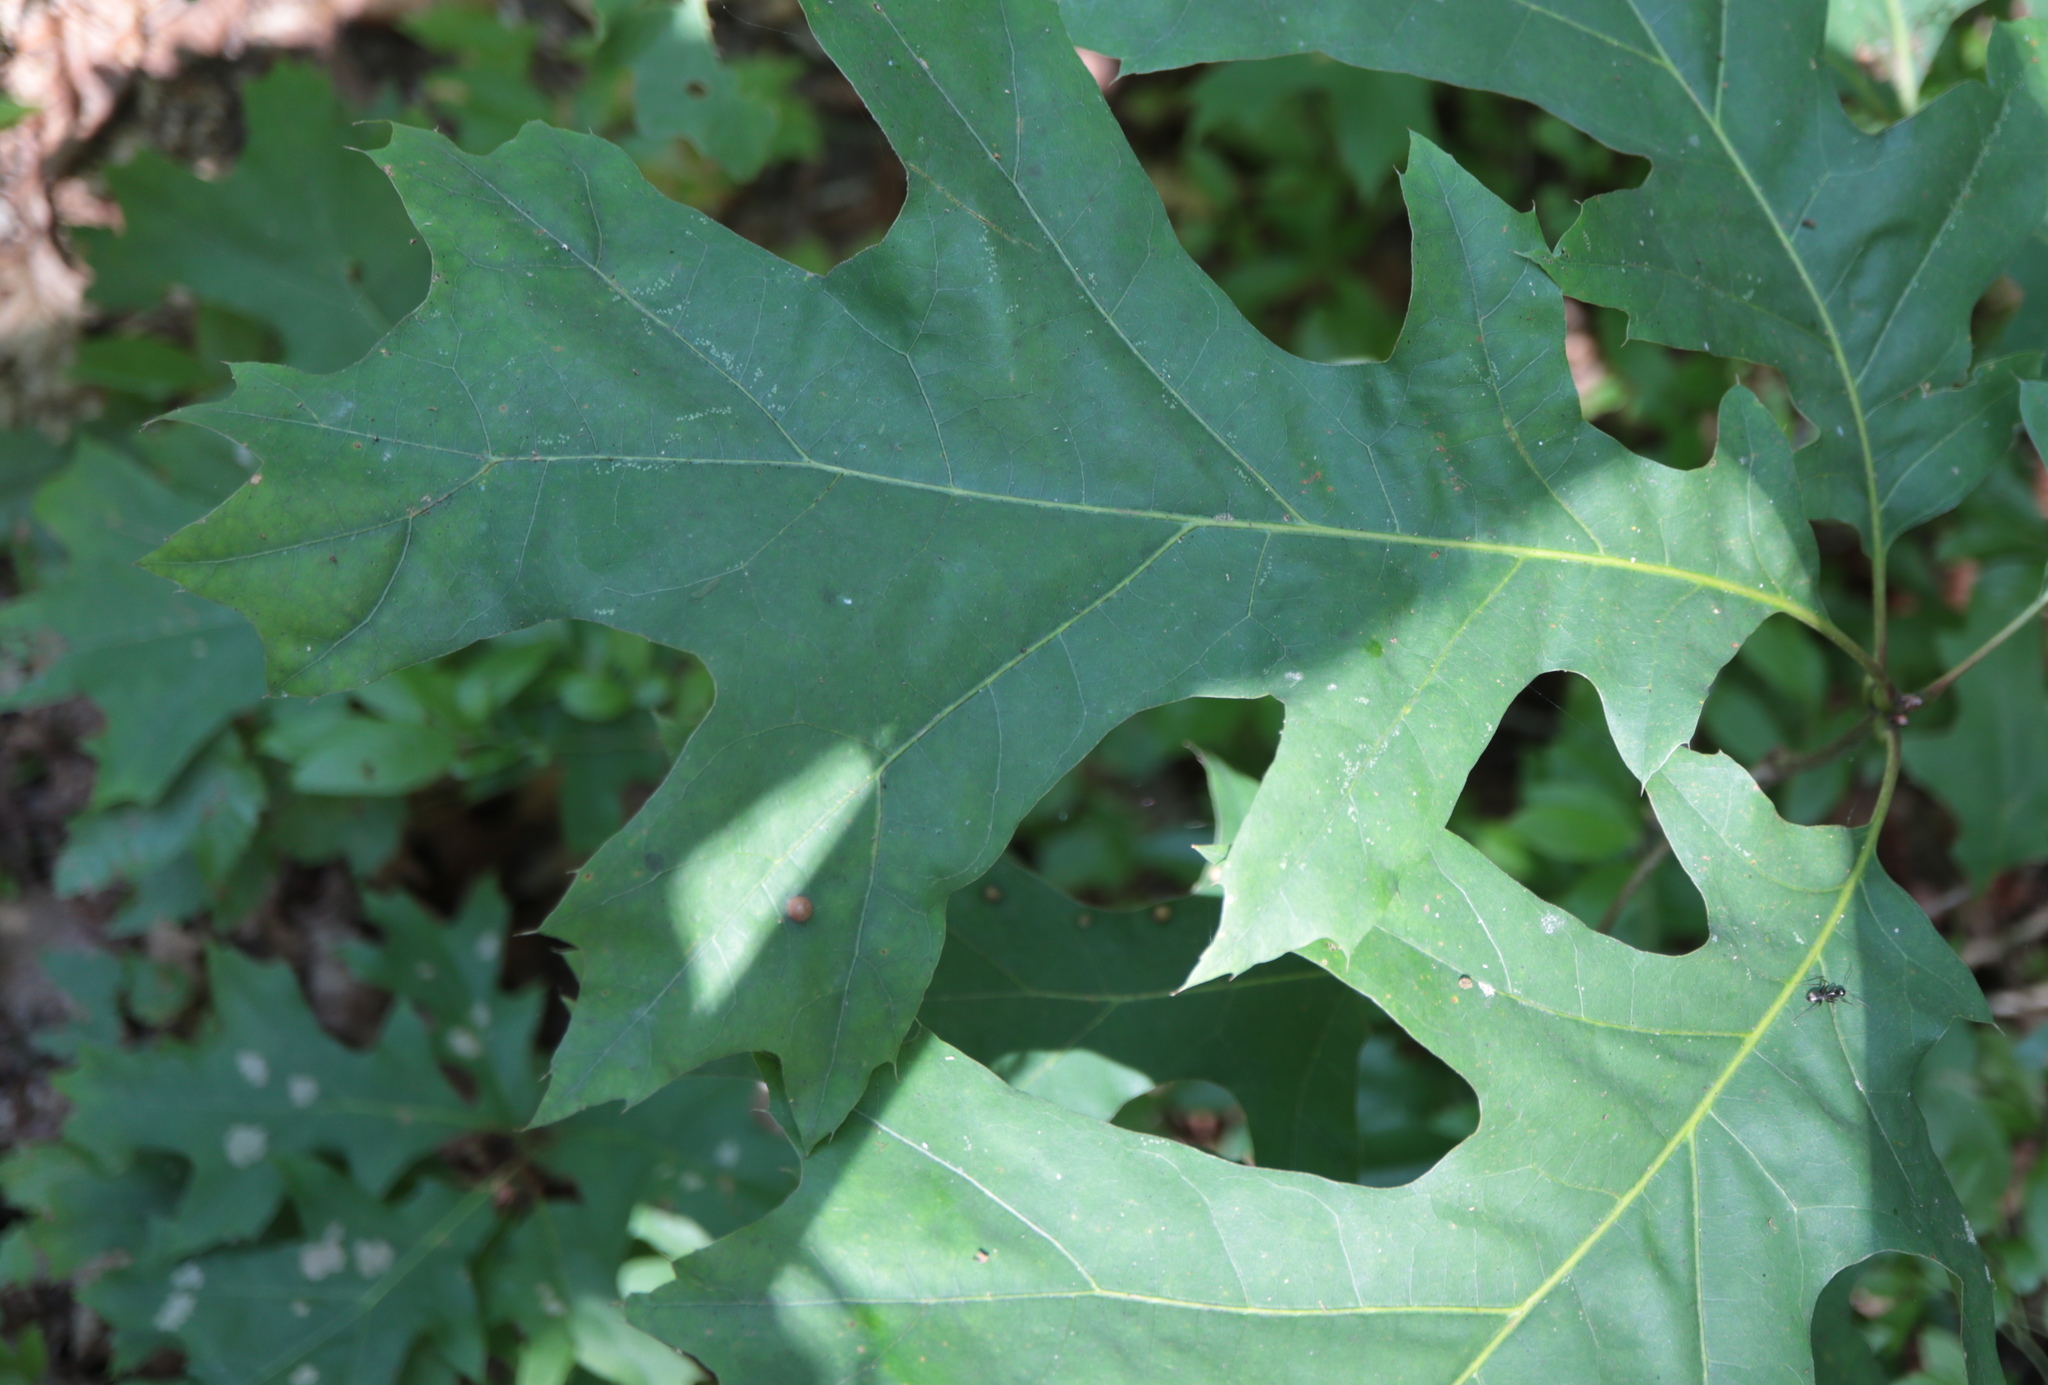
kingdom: Animalia
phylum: Arthropoda
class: Insecta
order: Diptera
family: Cecidomyiidae
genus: Polystepha
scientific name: Polystepha pilulae
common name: Oak leaf gall midge
